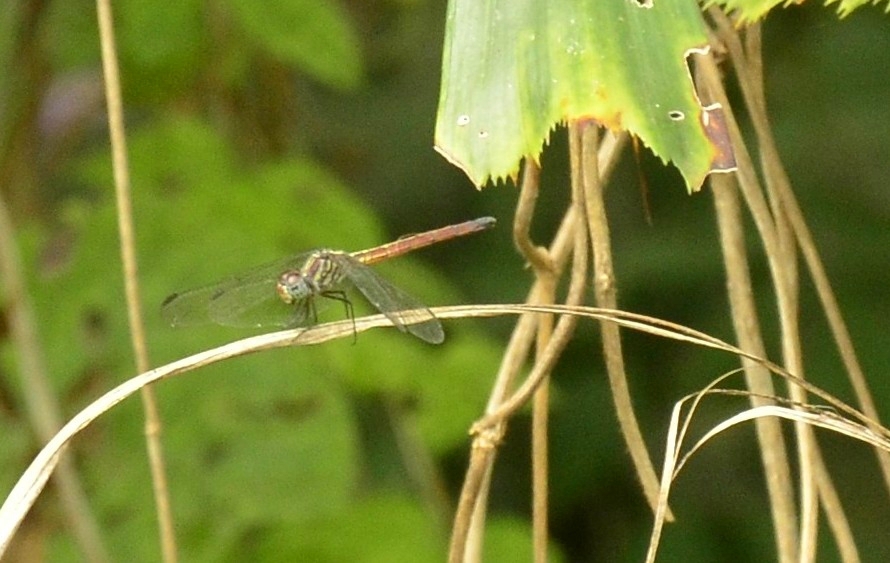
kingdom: Animalia
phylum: Arthropoda
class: Insecta
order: Odonata
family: Libellulidae
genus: Lathrecista
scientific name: Lathrecista asiatica
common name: Scarlet grenadier
